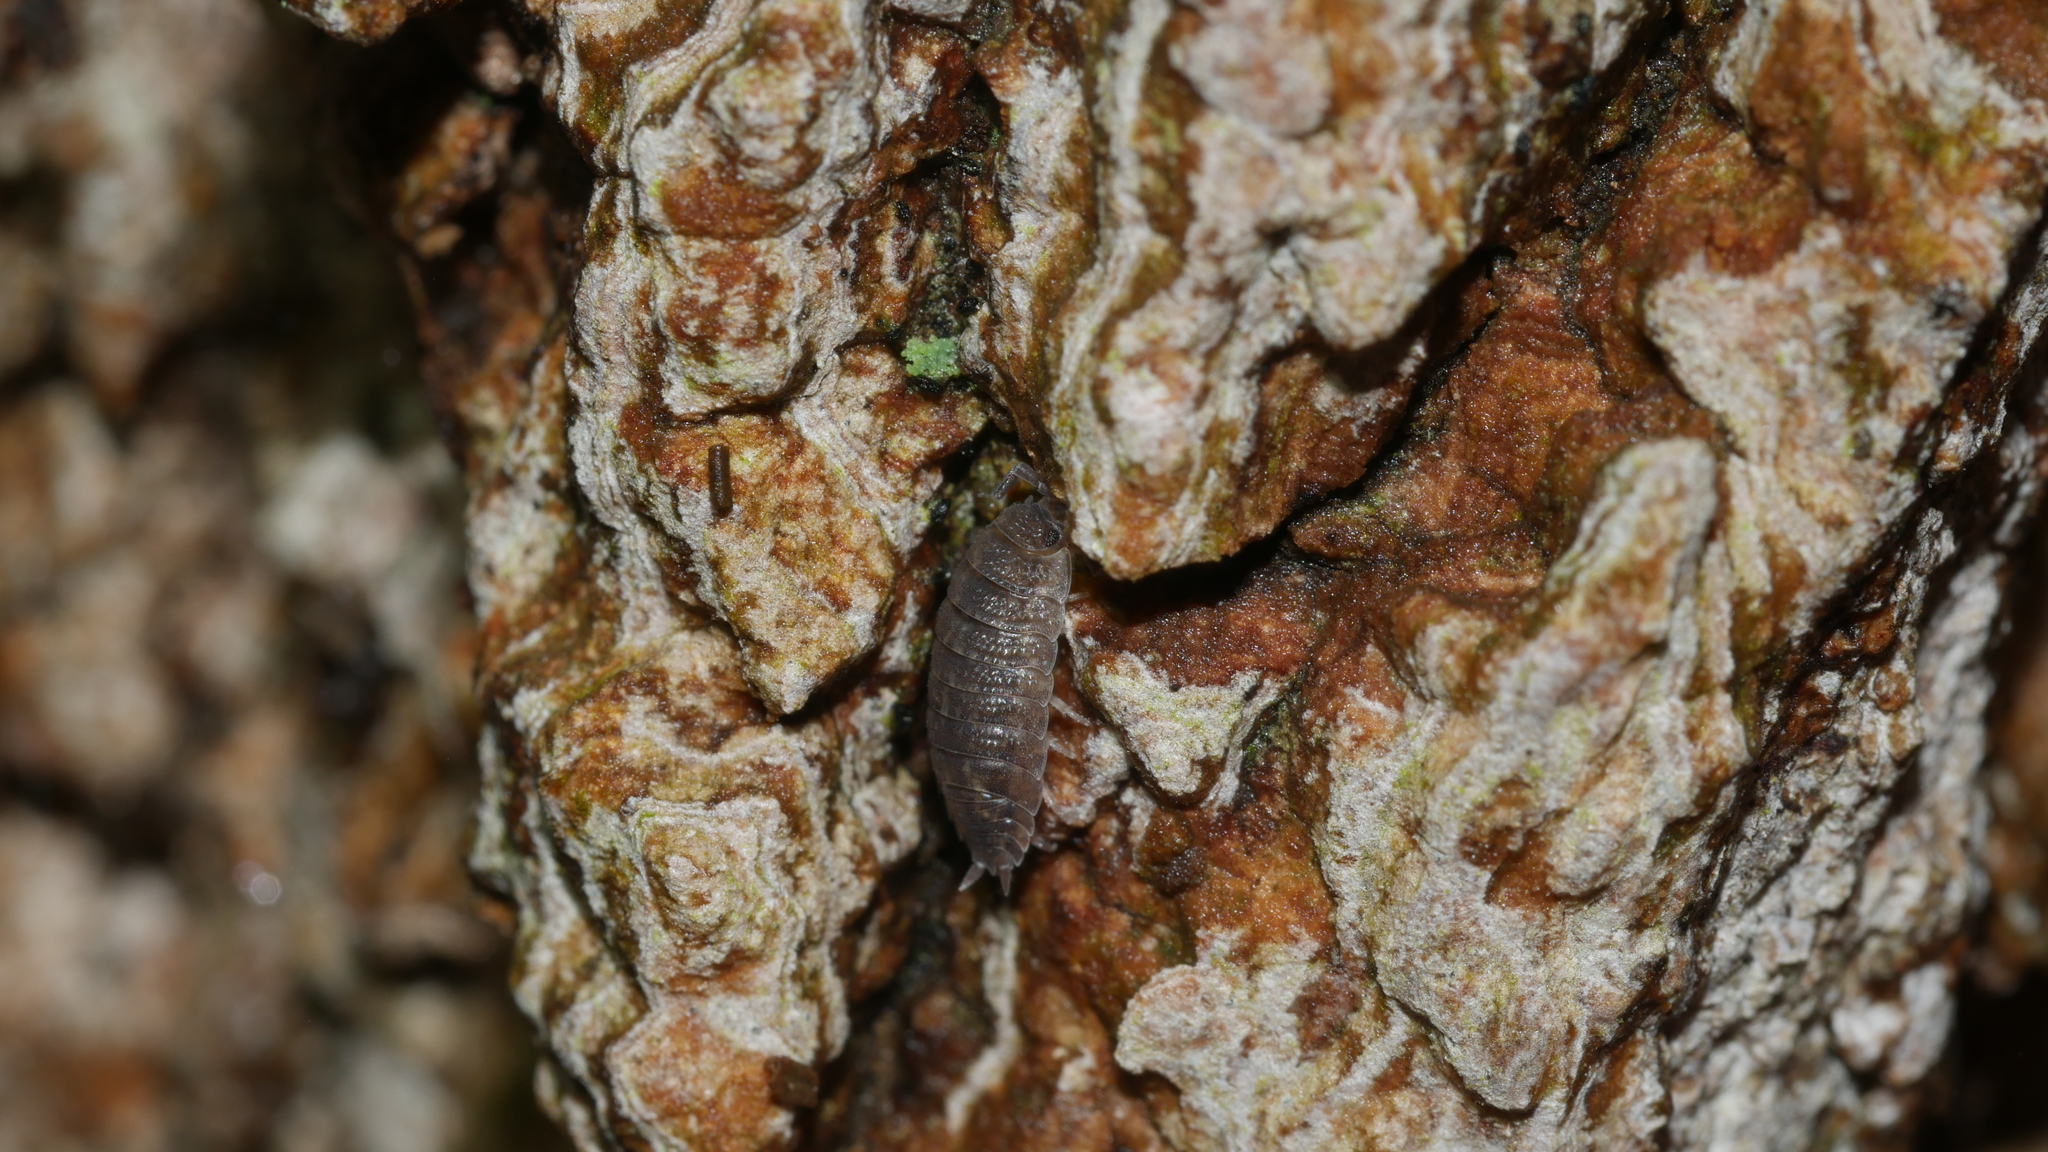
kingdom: Animalia
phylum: Arthropoda
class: Malacostraca
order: Isopoda
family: Porcellionidae
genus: Porcellio
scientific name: Porcellio scaber
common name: Common rough woodlouse
